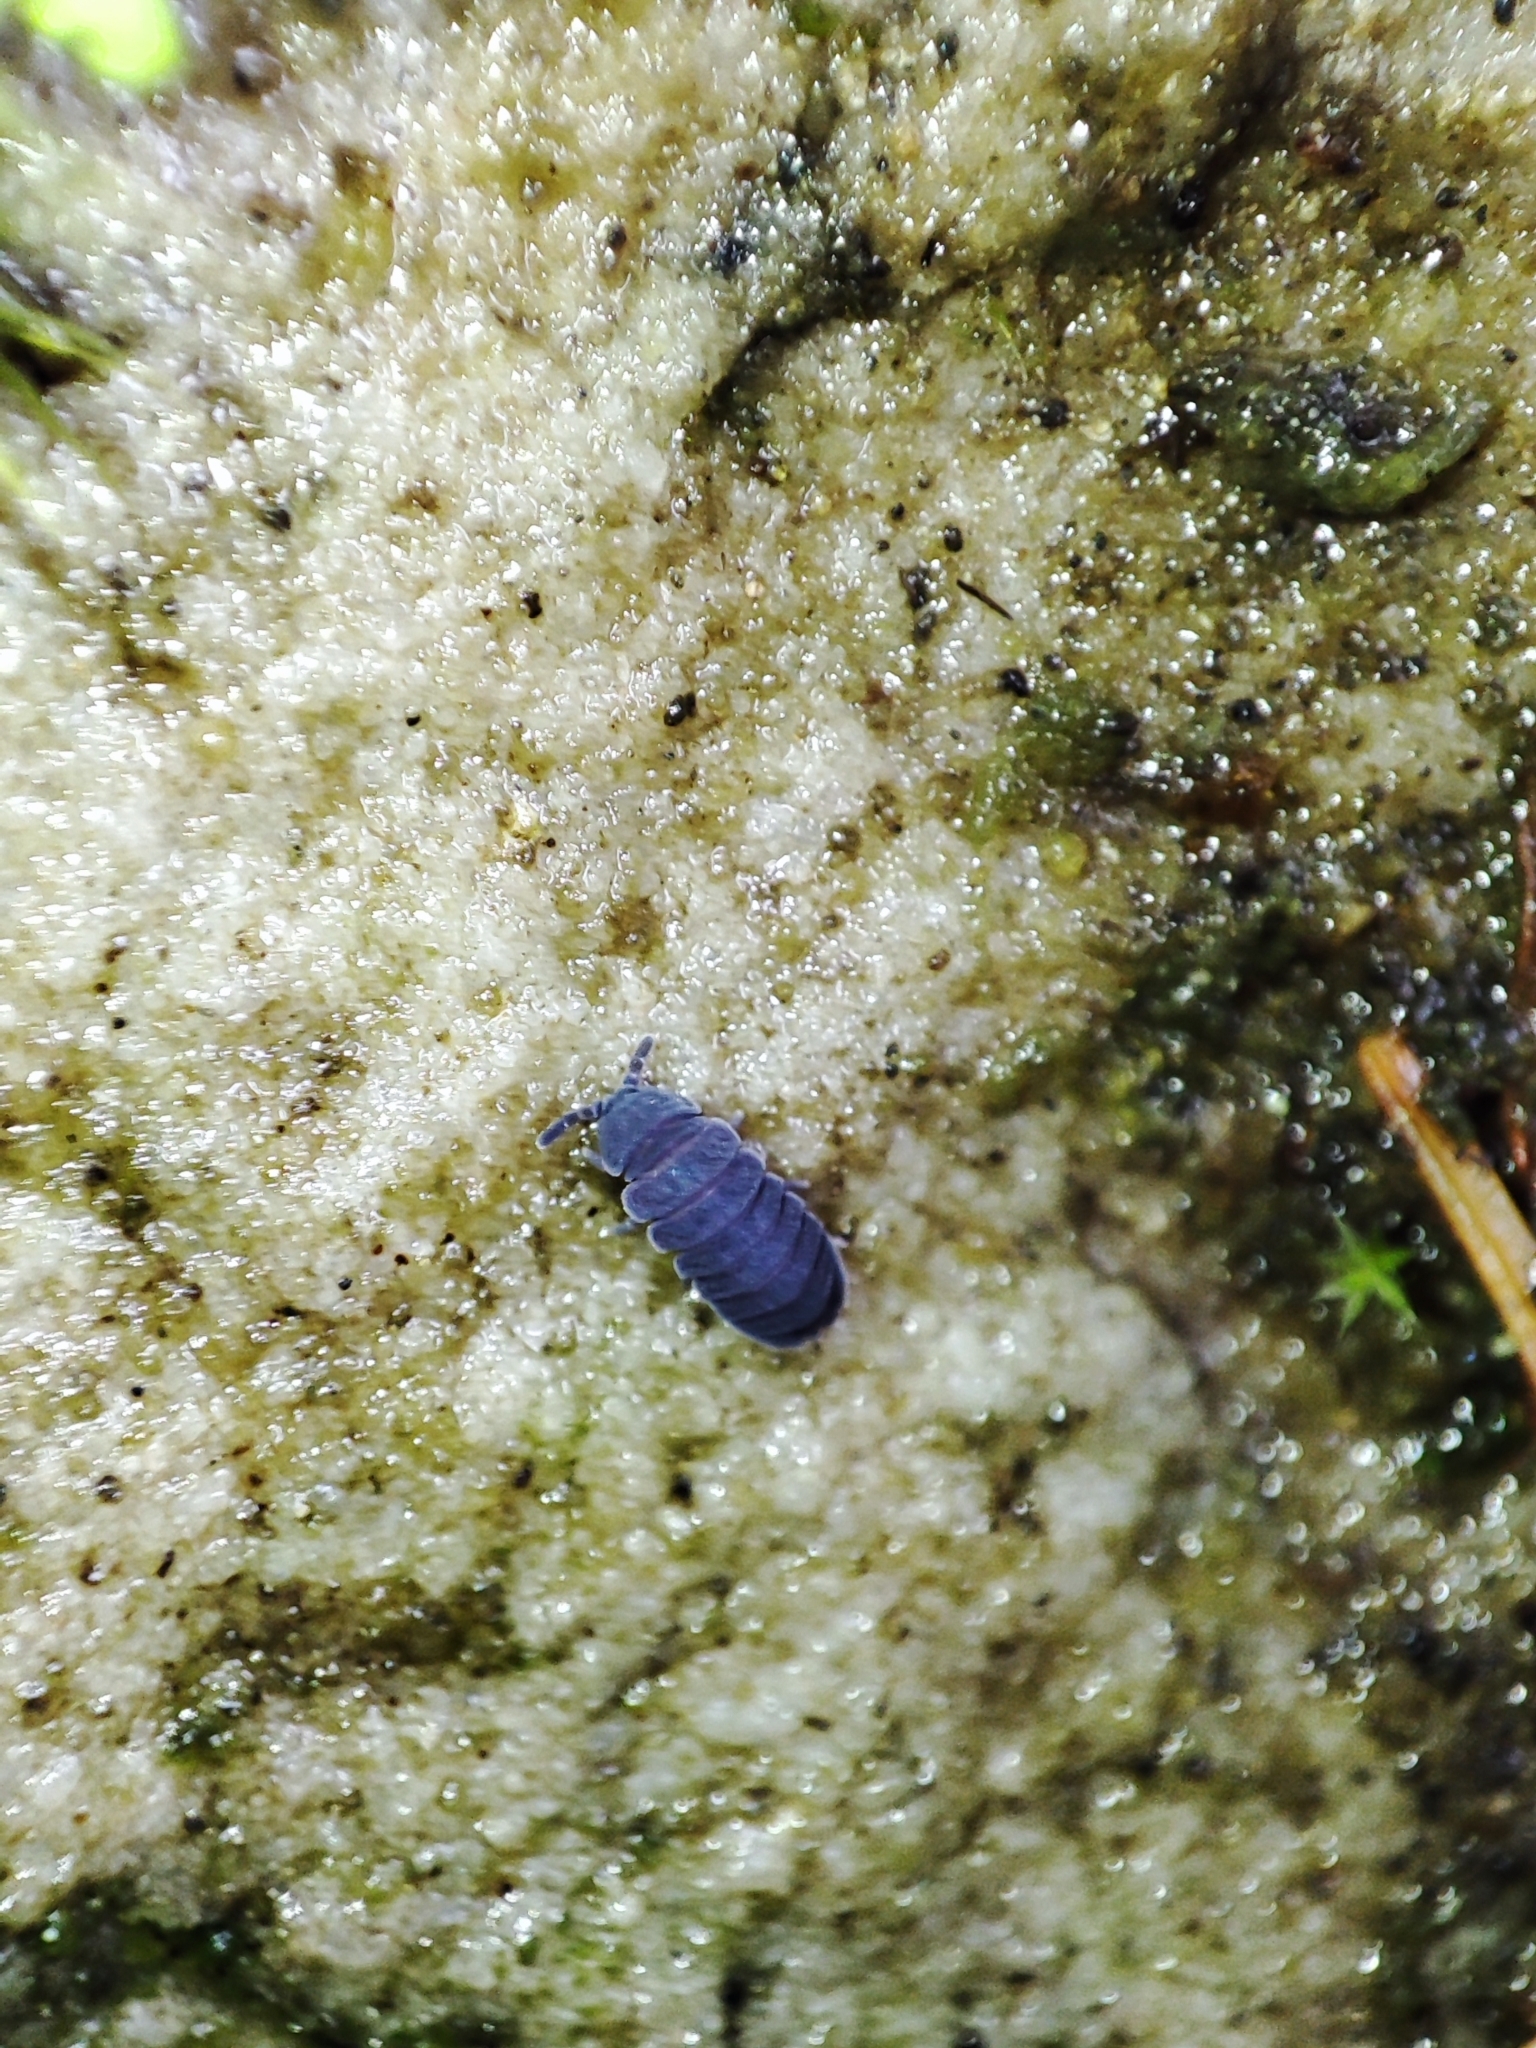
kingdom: Animalia
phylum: Arthropoda
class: Collembola
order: Poduromorpha
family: Onychiuridae
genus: Tetrodontophora
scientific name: Tetrodontophora bielanensis
